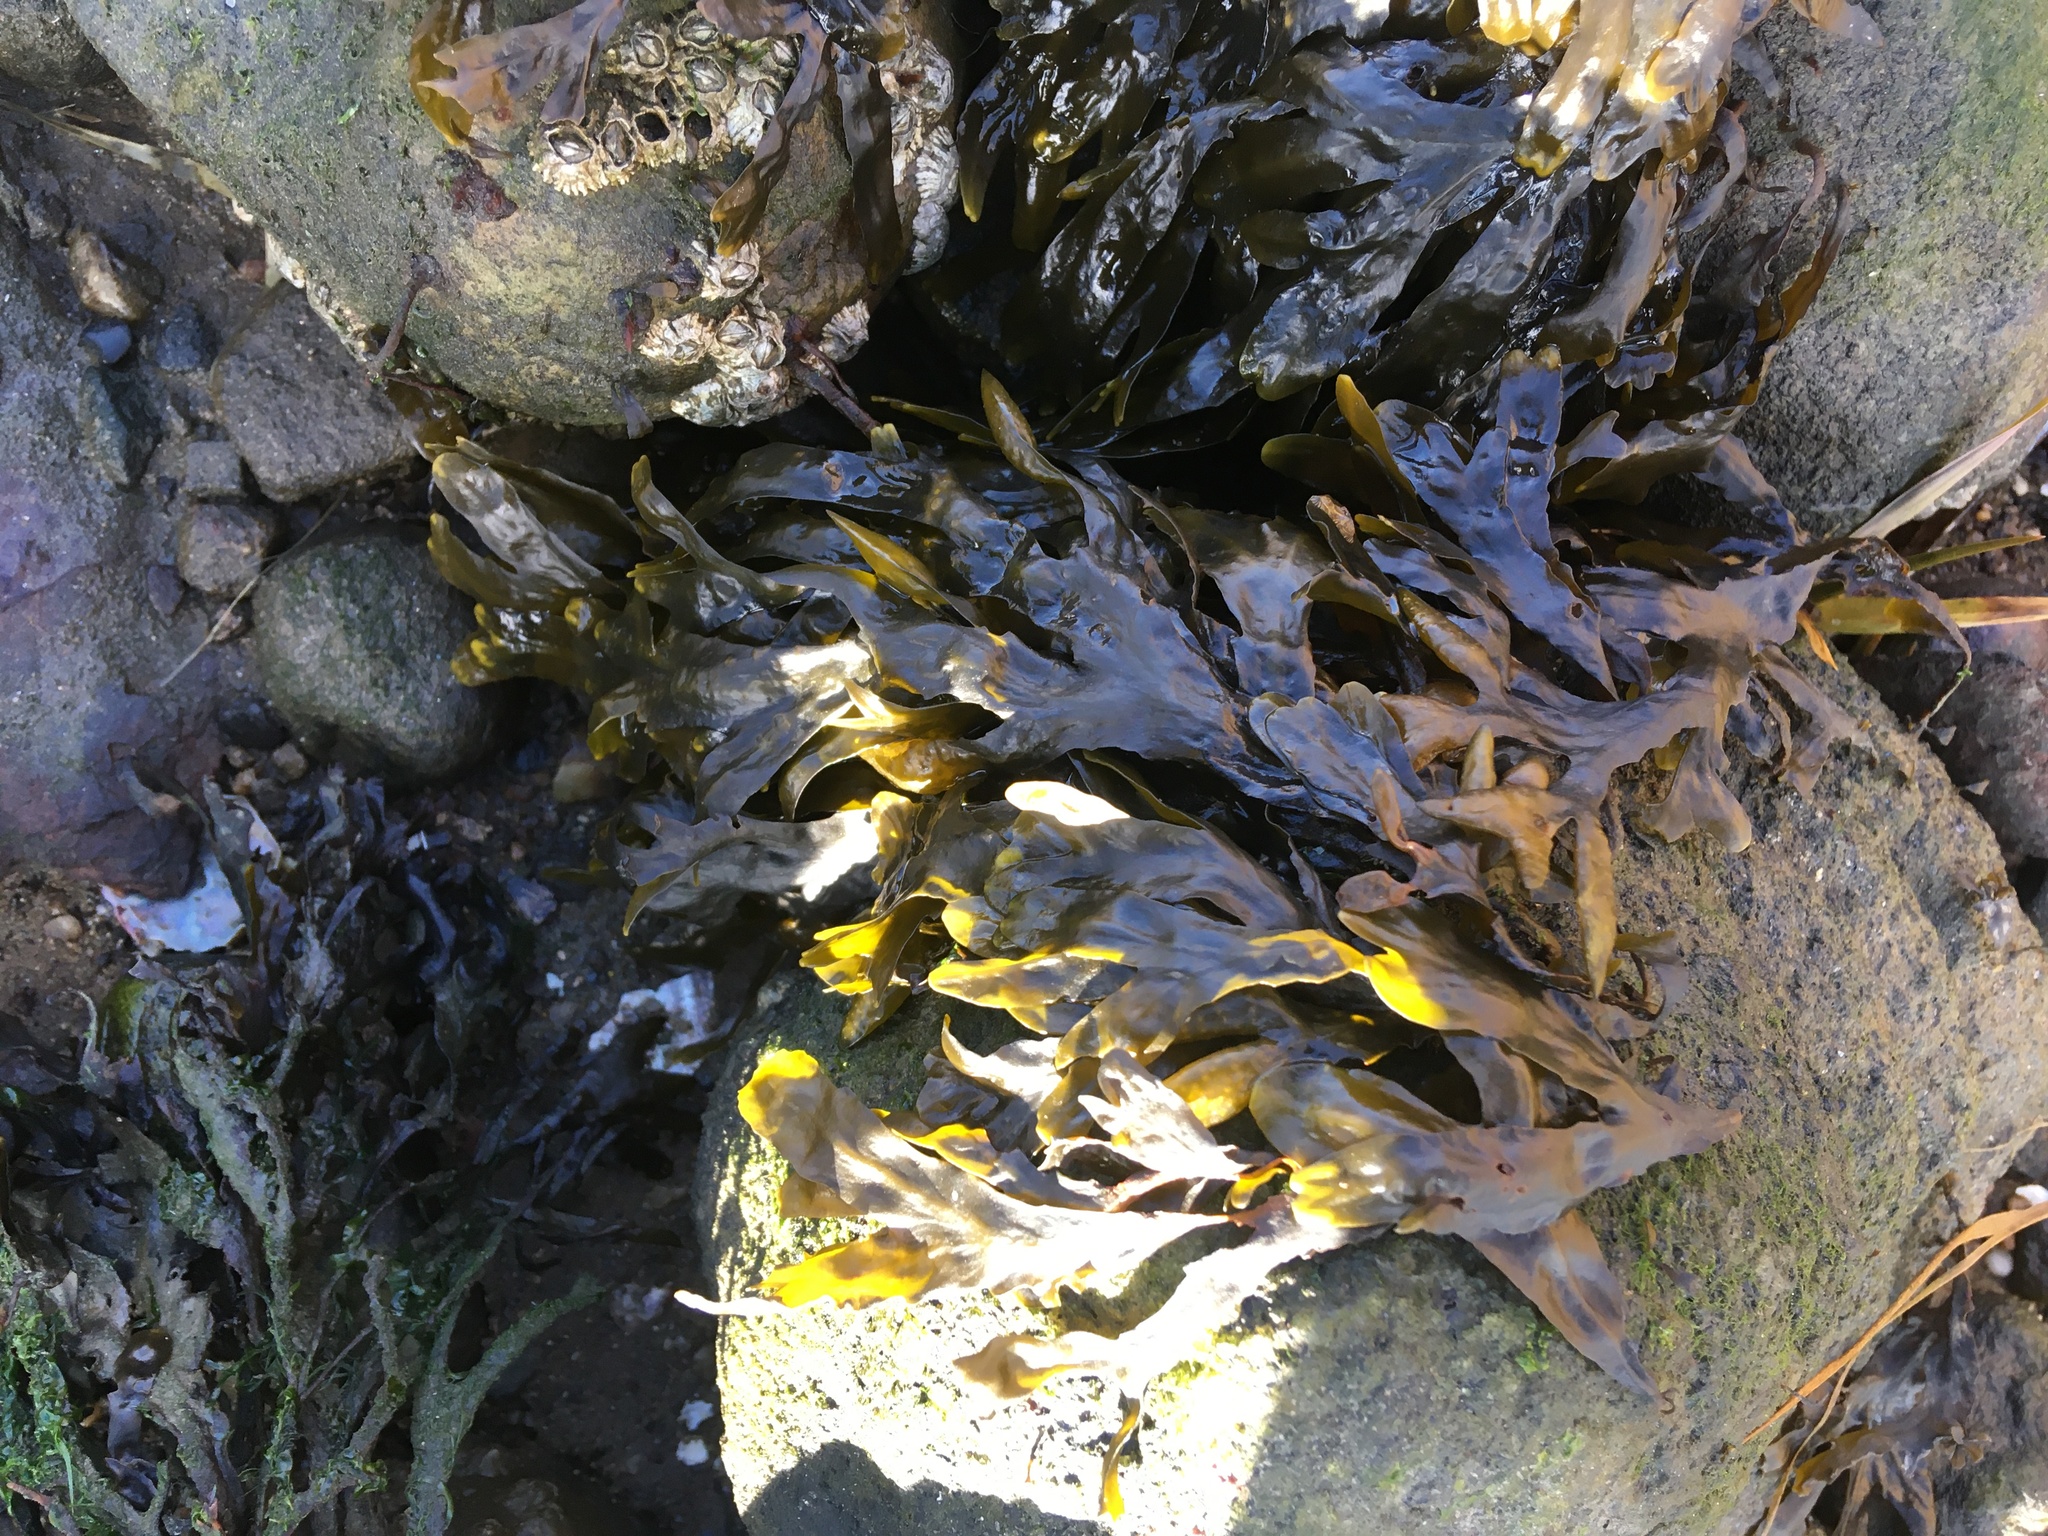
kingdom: Chromista
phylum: Ochrophyta
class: Phaeophyceae
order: Fucales
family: Fucaceae
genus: Fucus
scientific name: Fucus vesiculosus
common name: Bladder wrack
